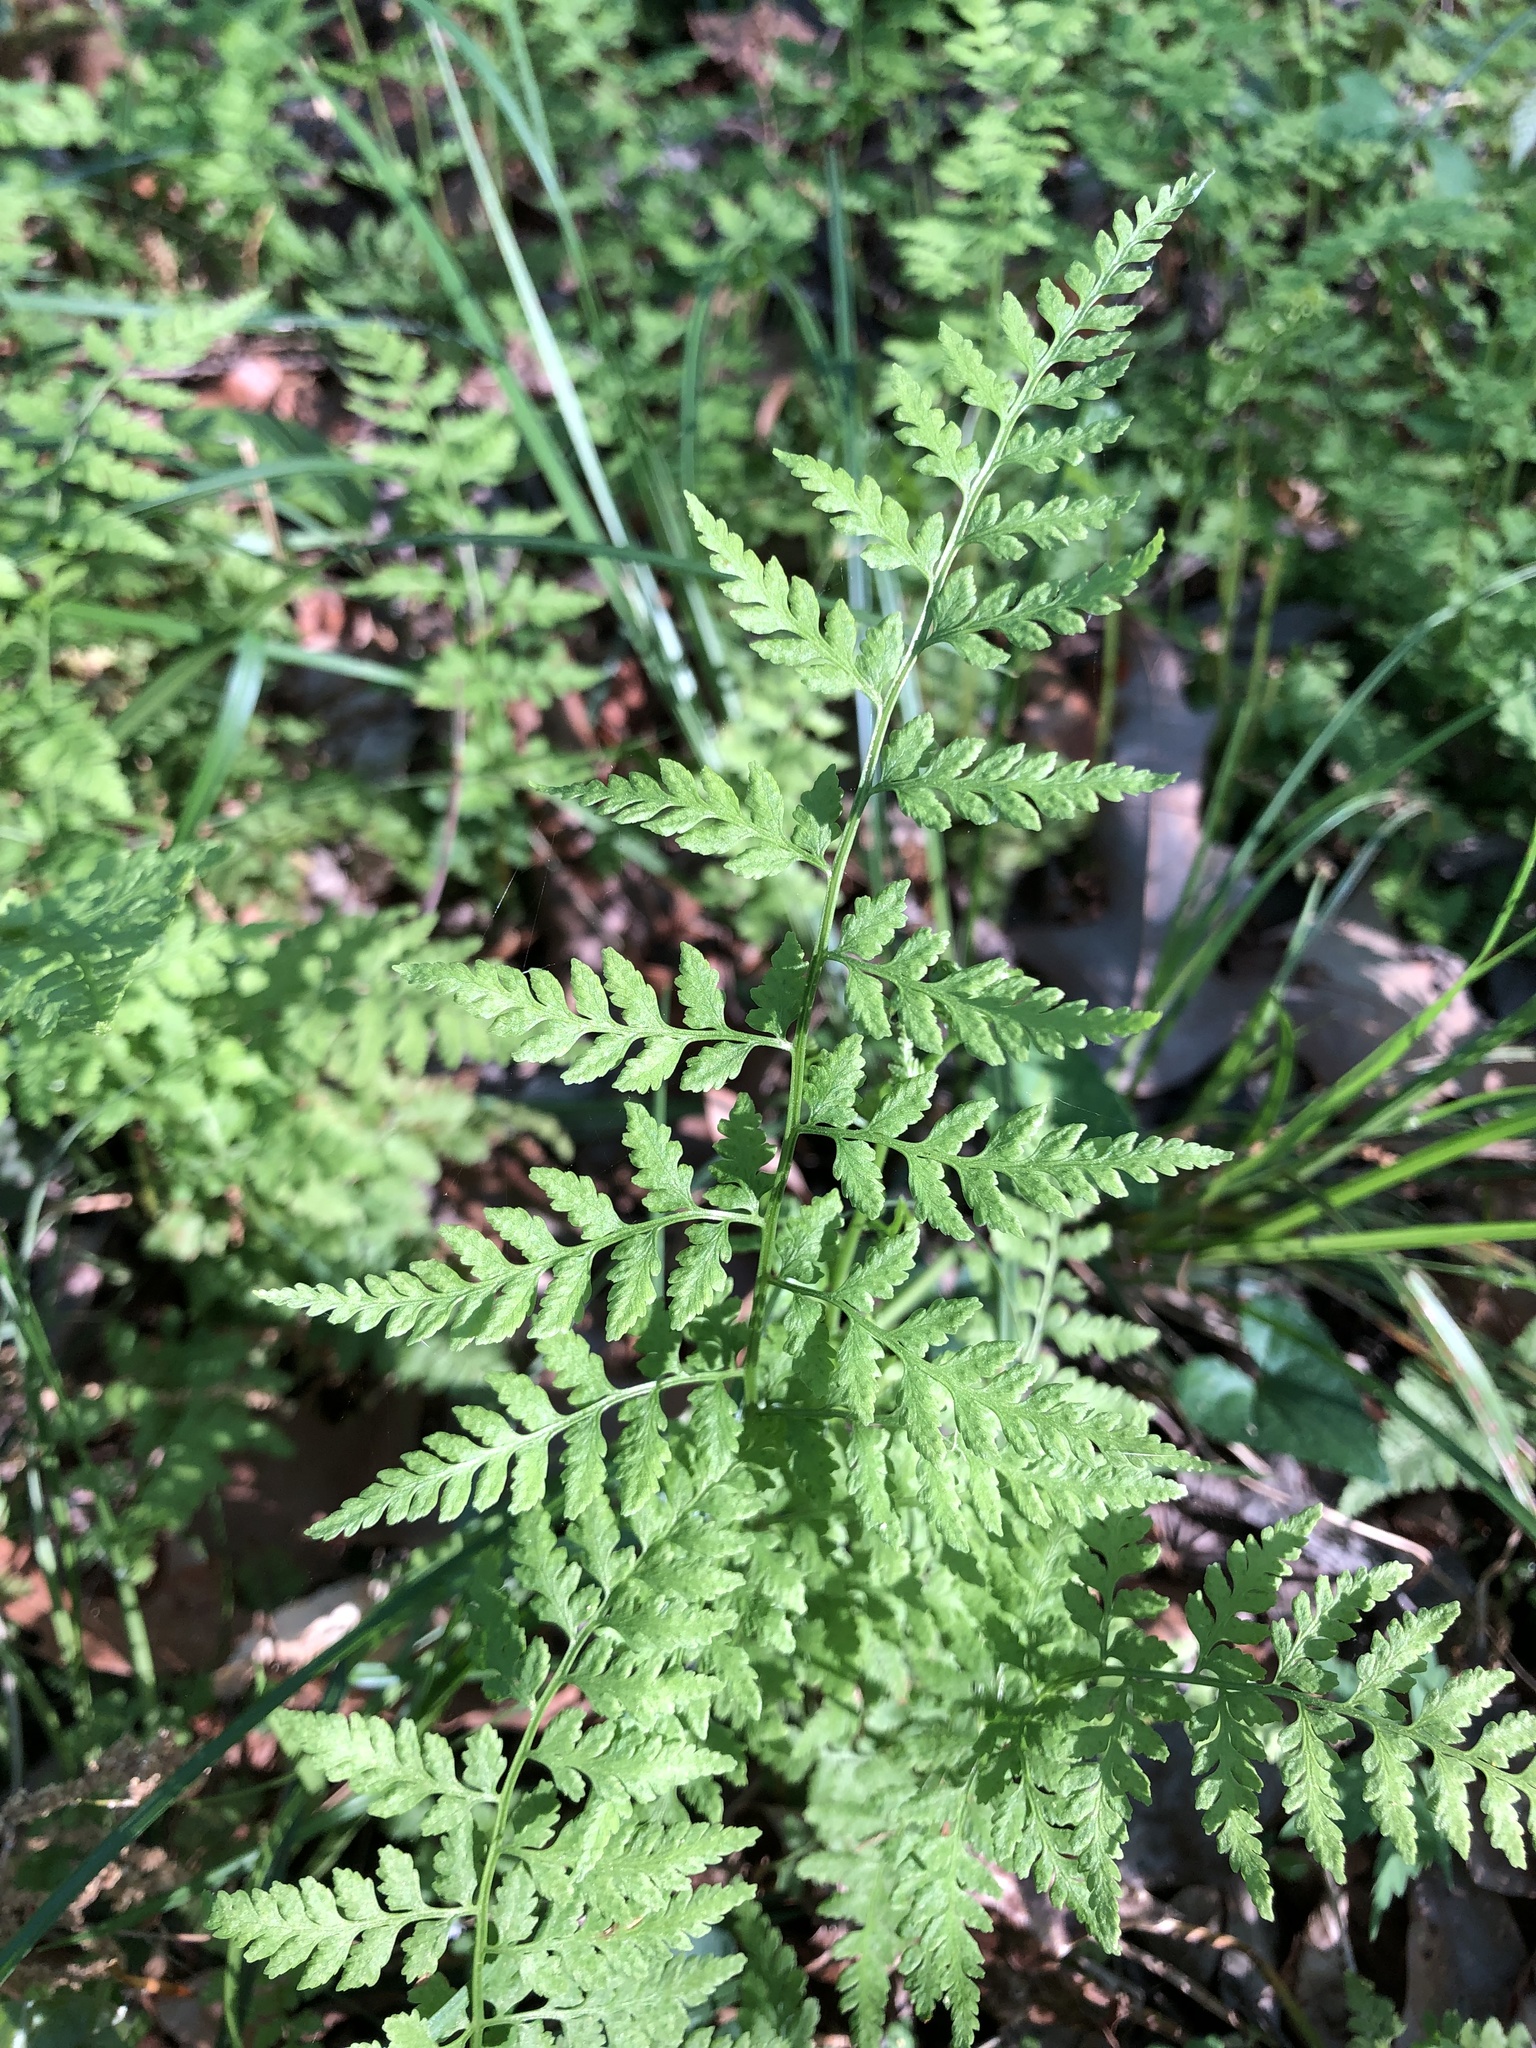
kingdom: Plantae
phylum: Tracheophyta
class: Polypodiopsida
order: Polypodiales
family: Cystopteridaceae
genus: Cystopteris
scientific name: Cystopteris protrusa
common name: Lowland brittle fern
